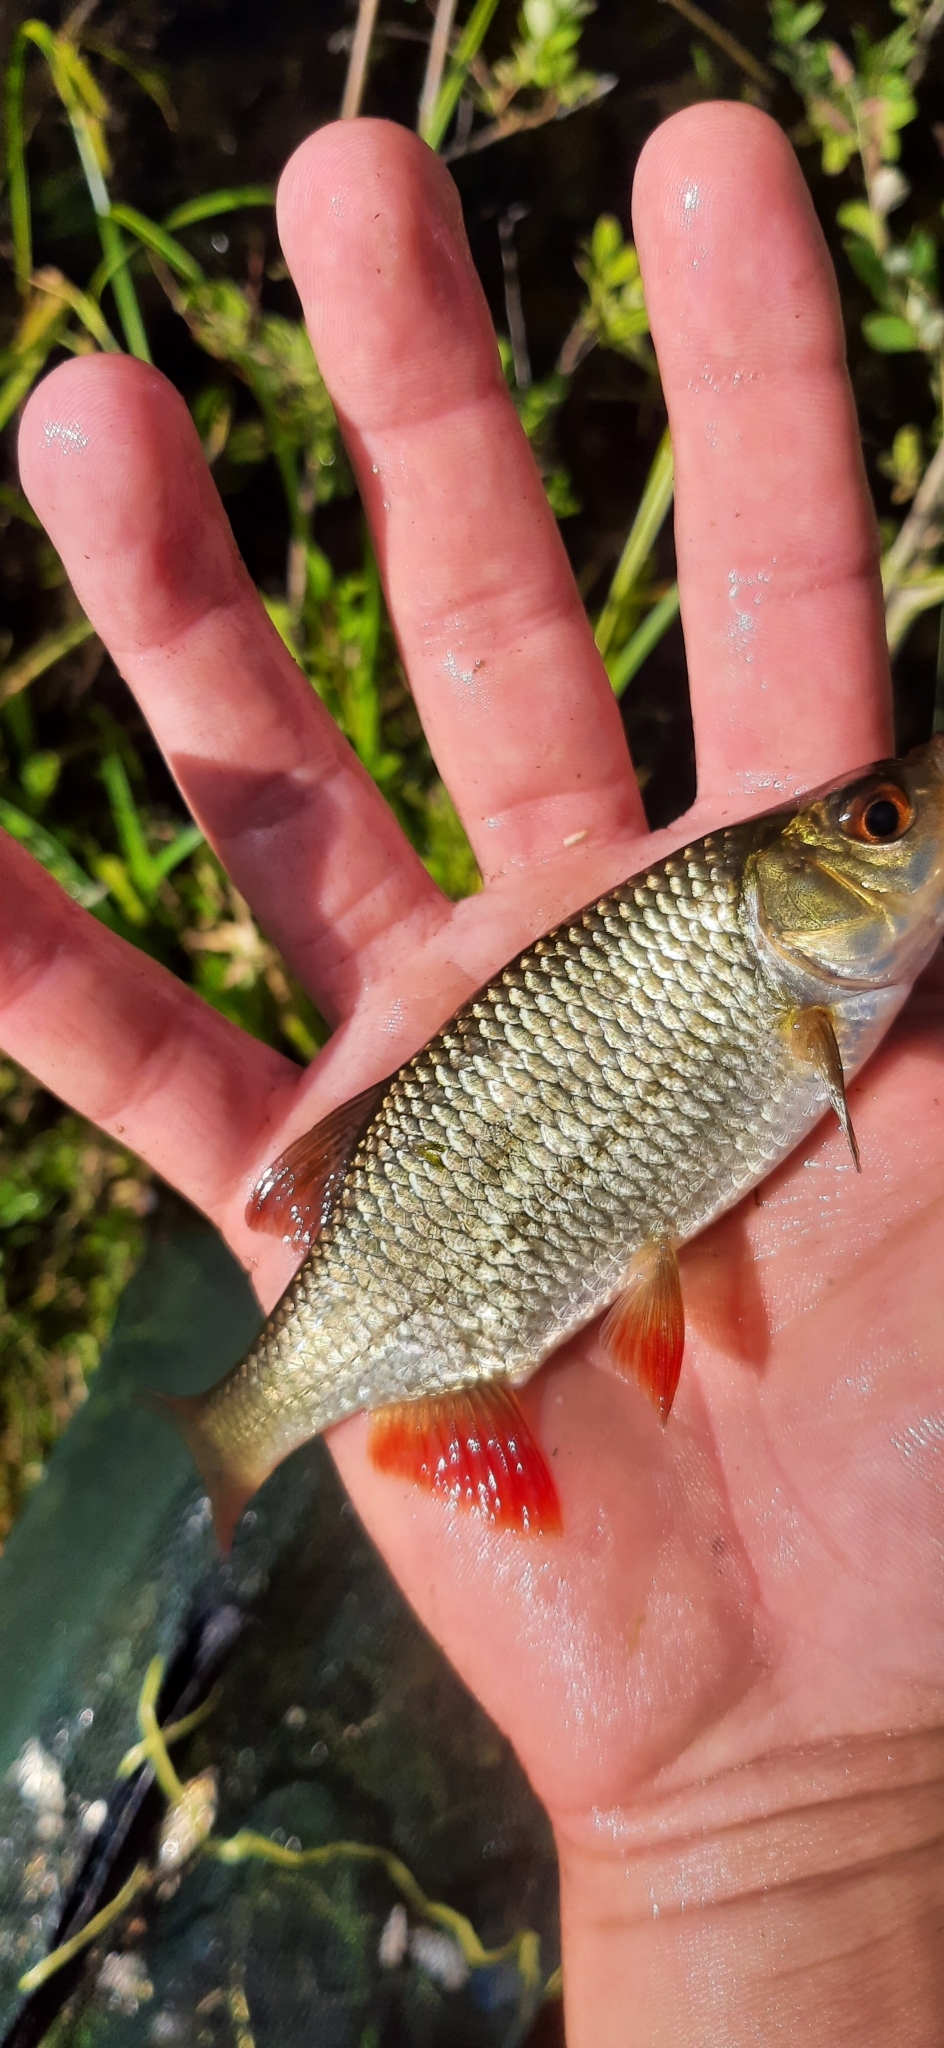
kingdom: Animalia
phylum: Chordata
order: Cypriniformes
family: Cyprinidae
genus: Scardinius
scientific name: Scardinius erythrophthalmus
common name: Rudd
